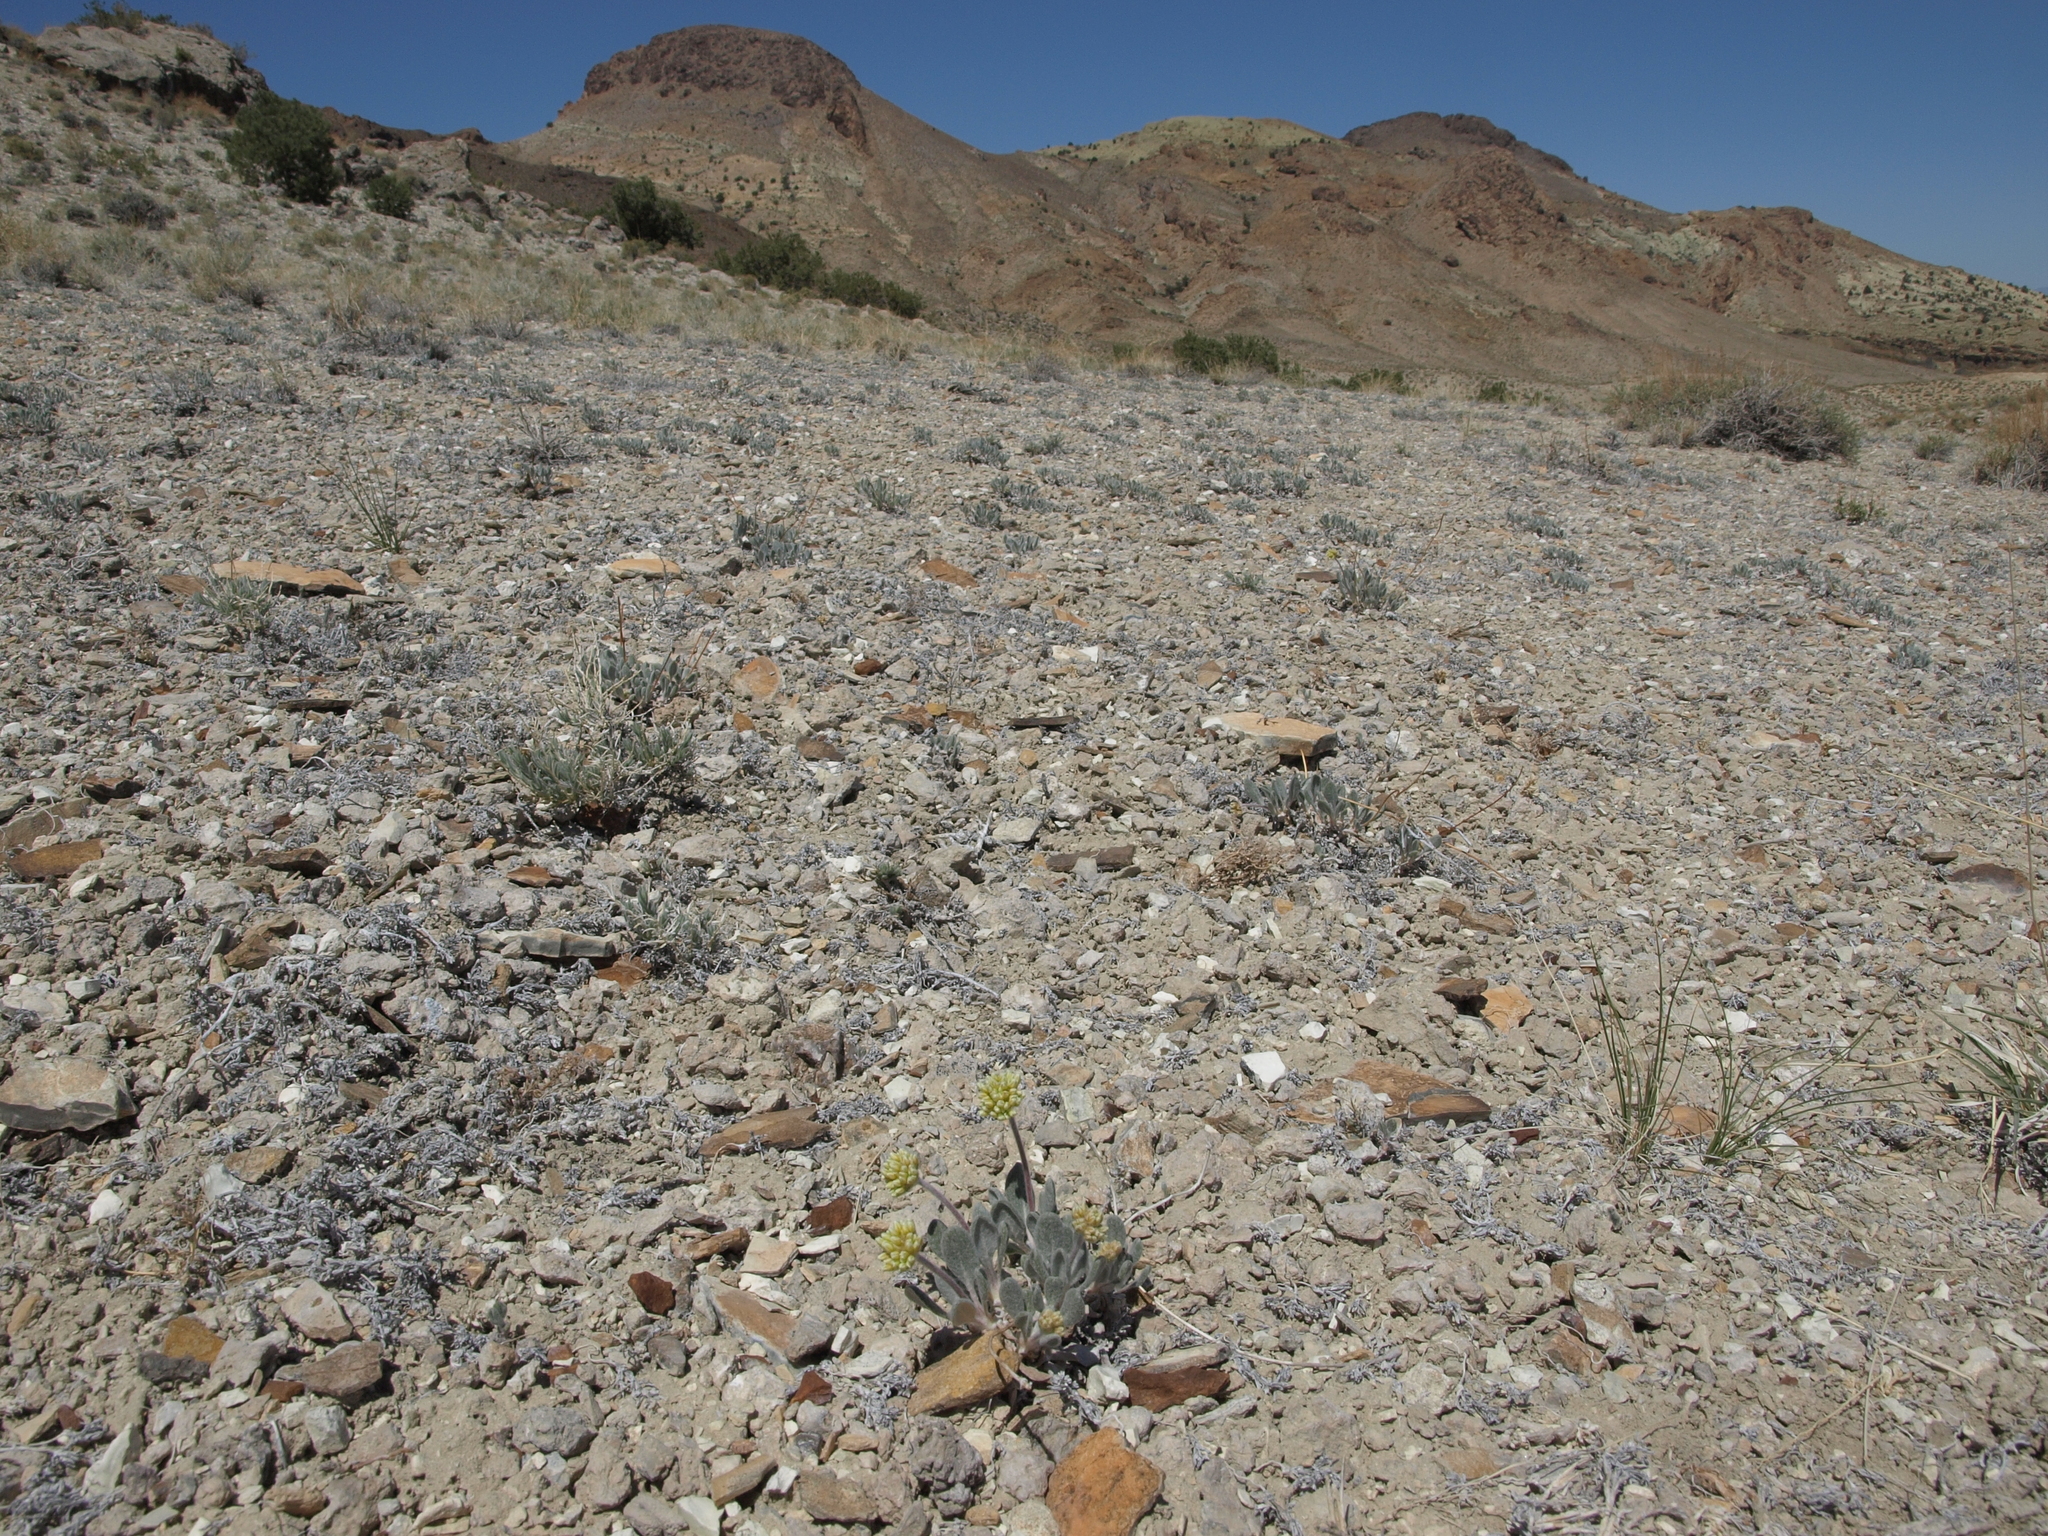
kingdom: Plantae
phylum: Tracheophyta
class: Magnoliopsida
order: Caryophyllales
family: Polygonaceae
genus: Eriogonum
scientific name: Eriogonum tiehmii
